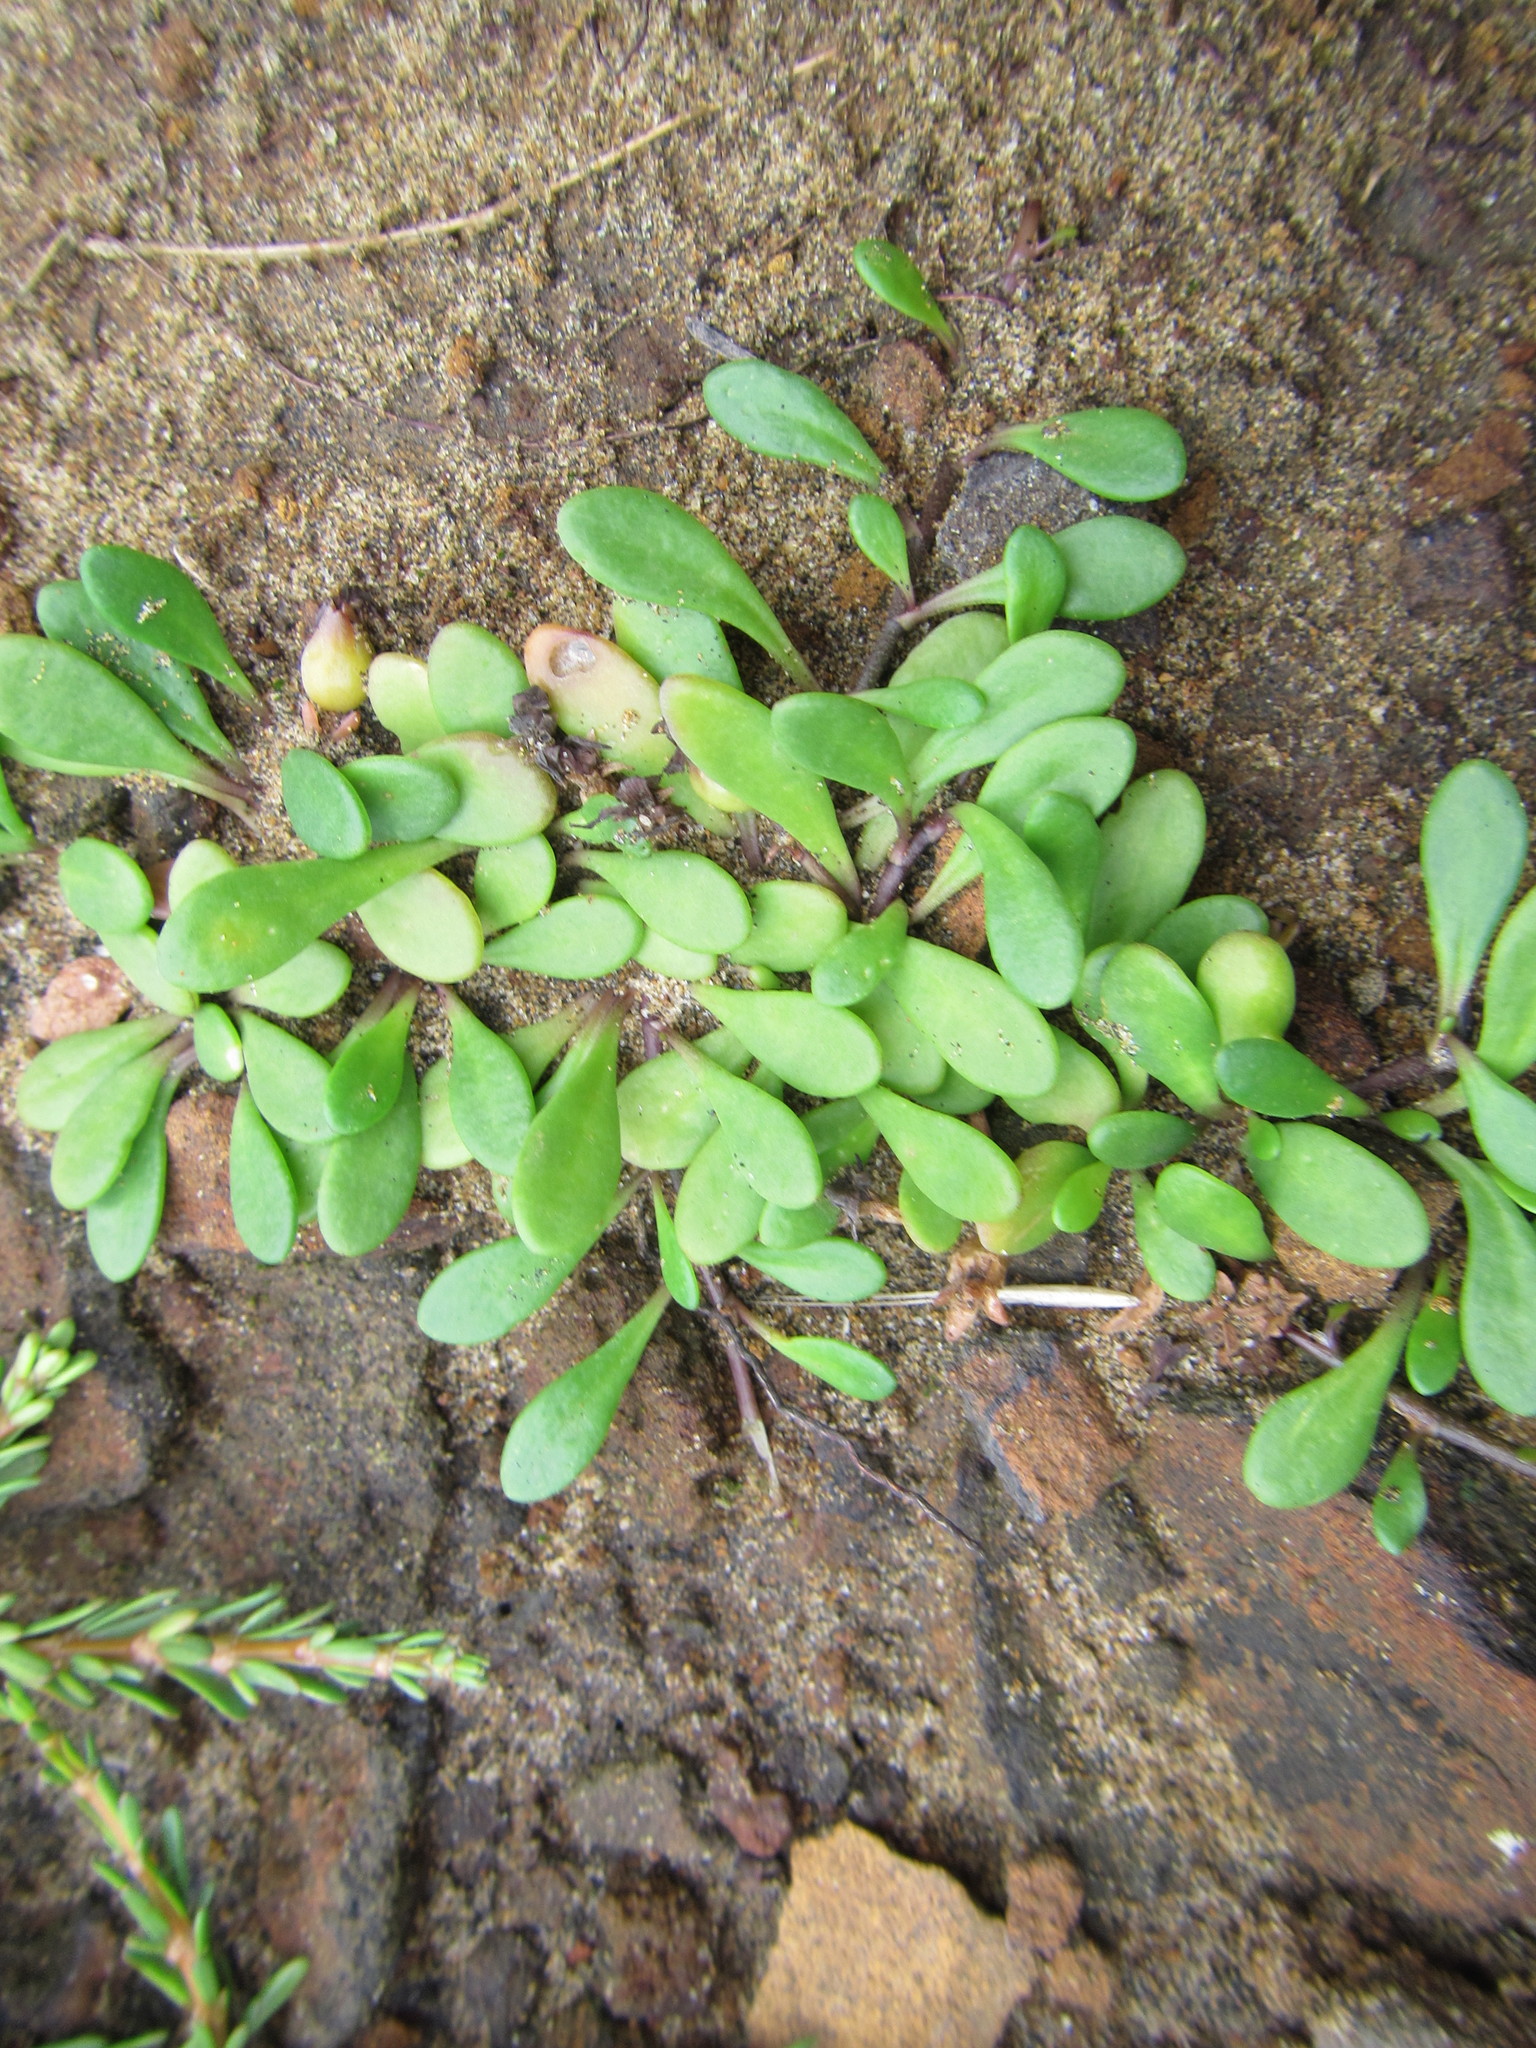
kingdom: Plantae
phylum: Tracheophyta
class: Magnoliopsida
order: Asterales
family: Goodeniaceae
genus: Goodenia
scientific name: Goodenia radicans
